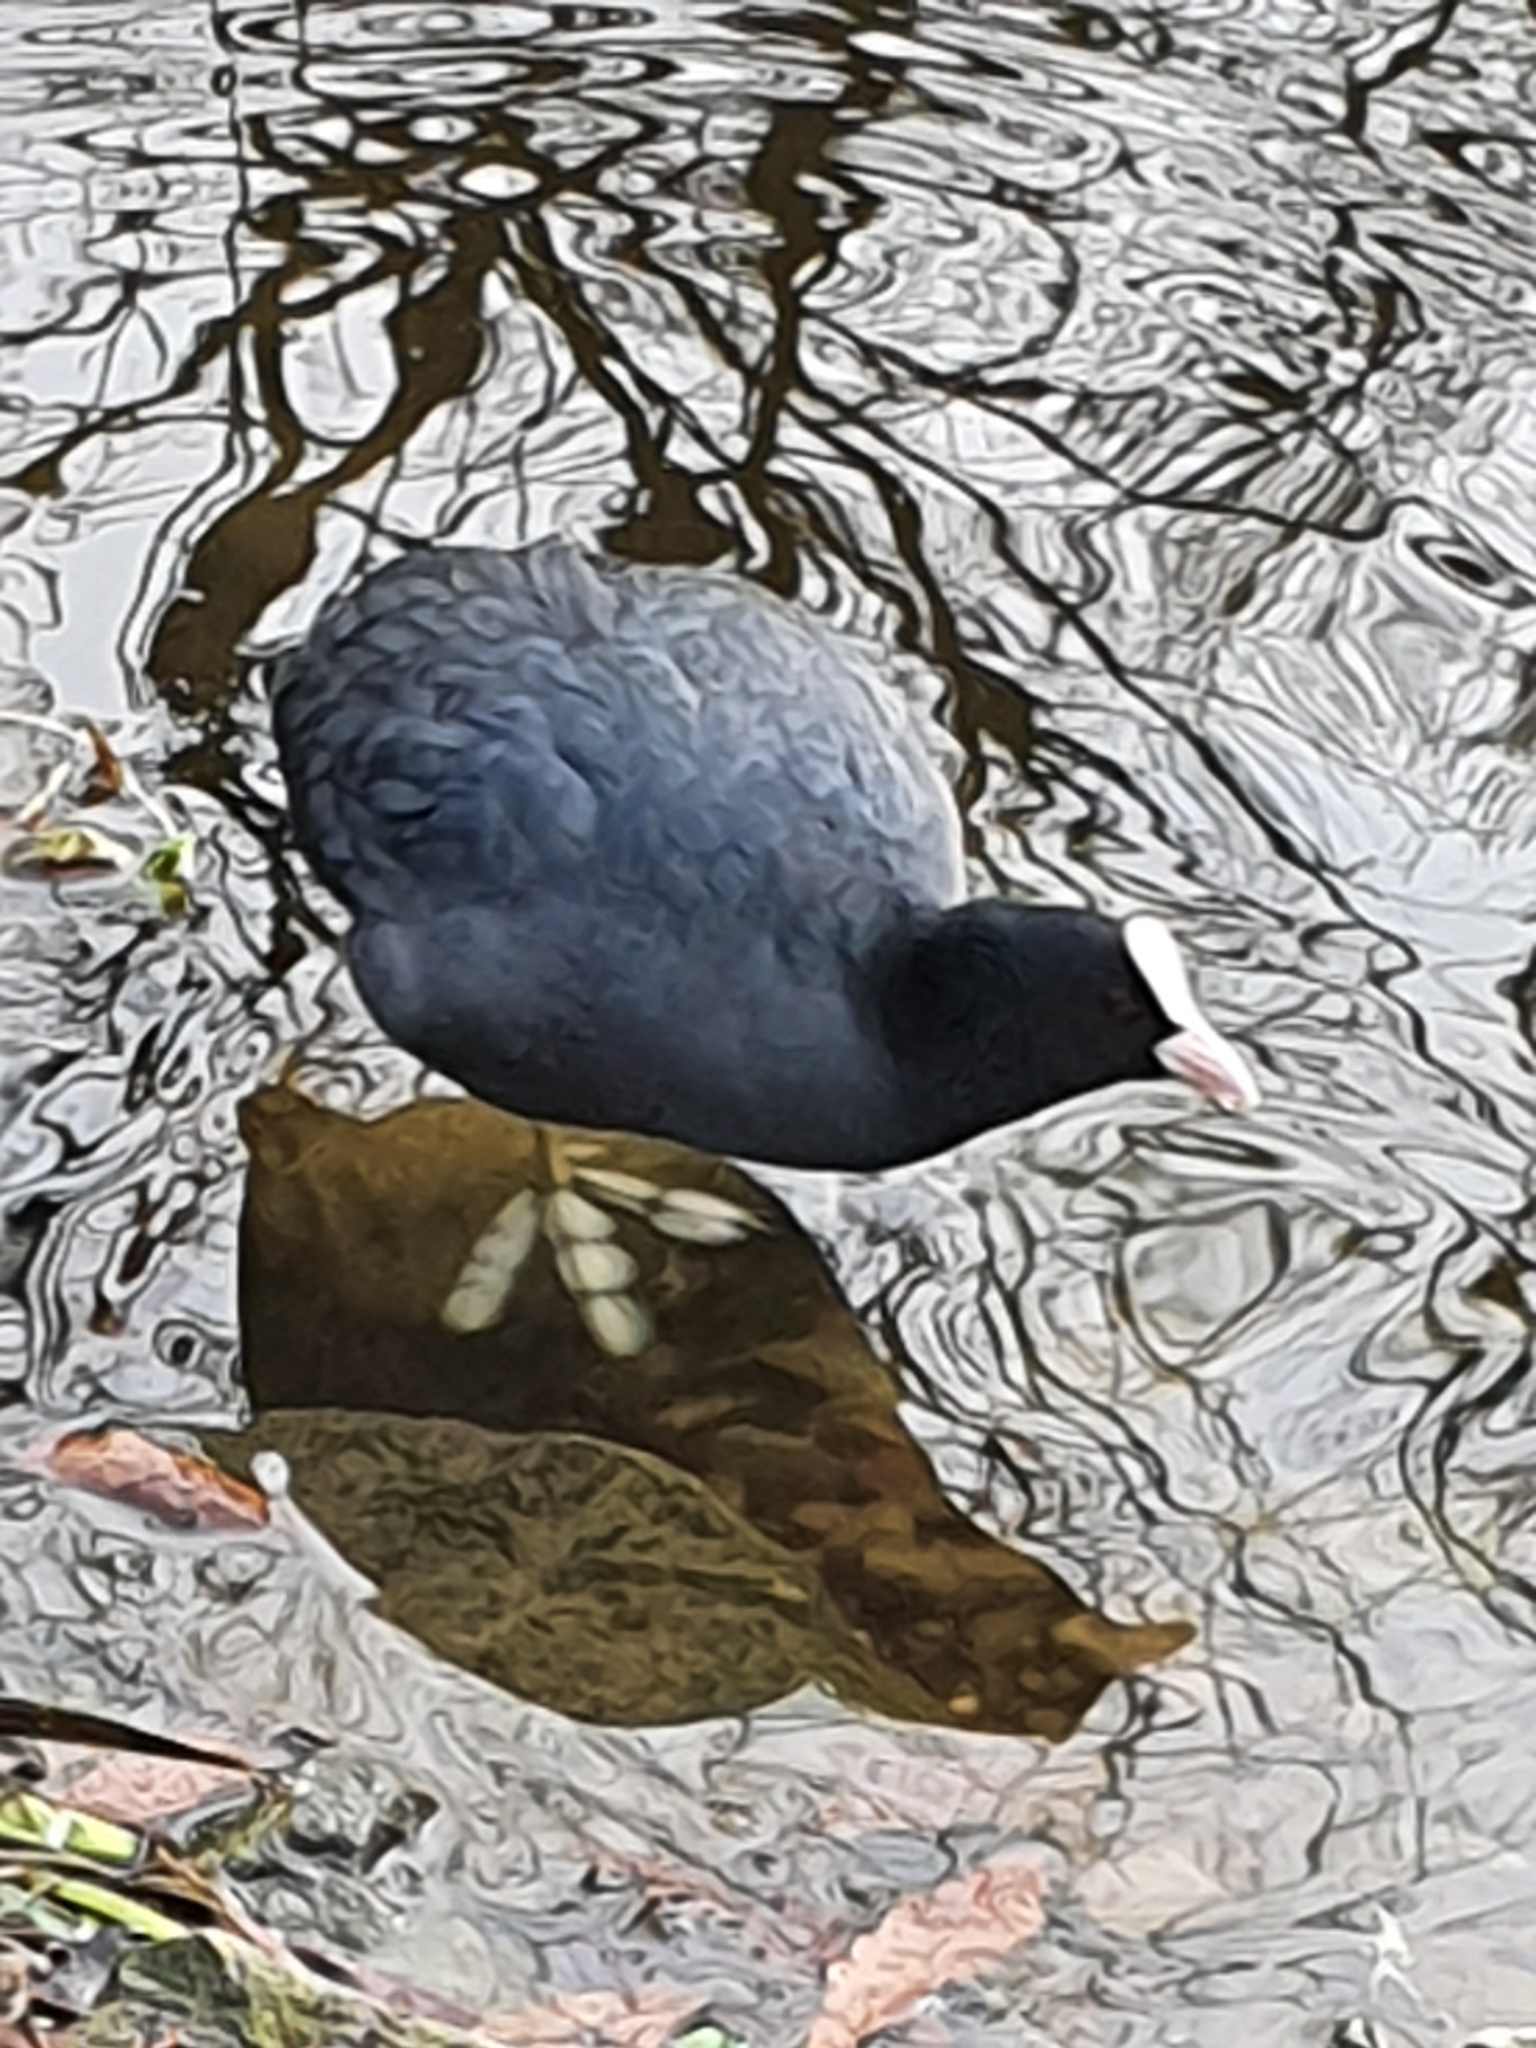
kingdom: Animalia
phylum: Chordata
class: Aves
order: Gruiformes
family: Rallidae
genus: Fulica
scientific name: Fulica atra
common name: Eurasian coot
